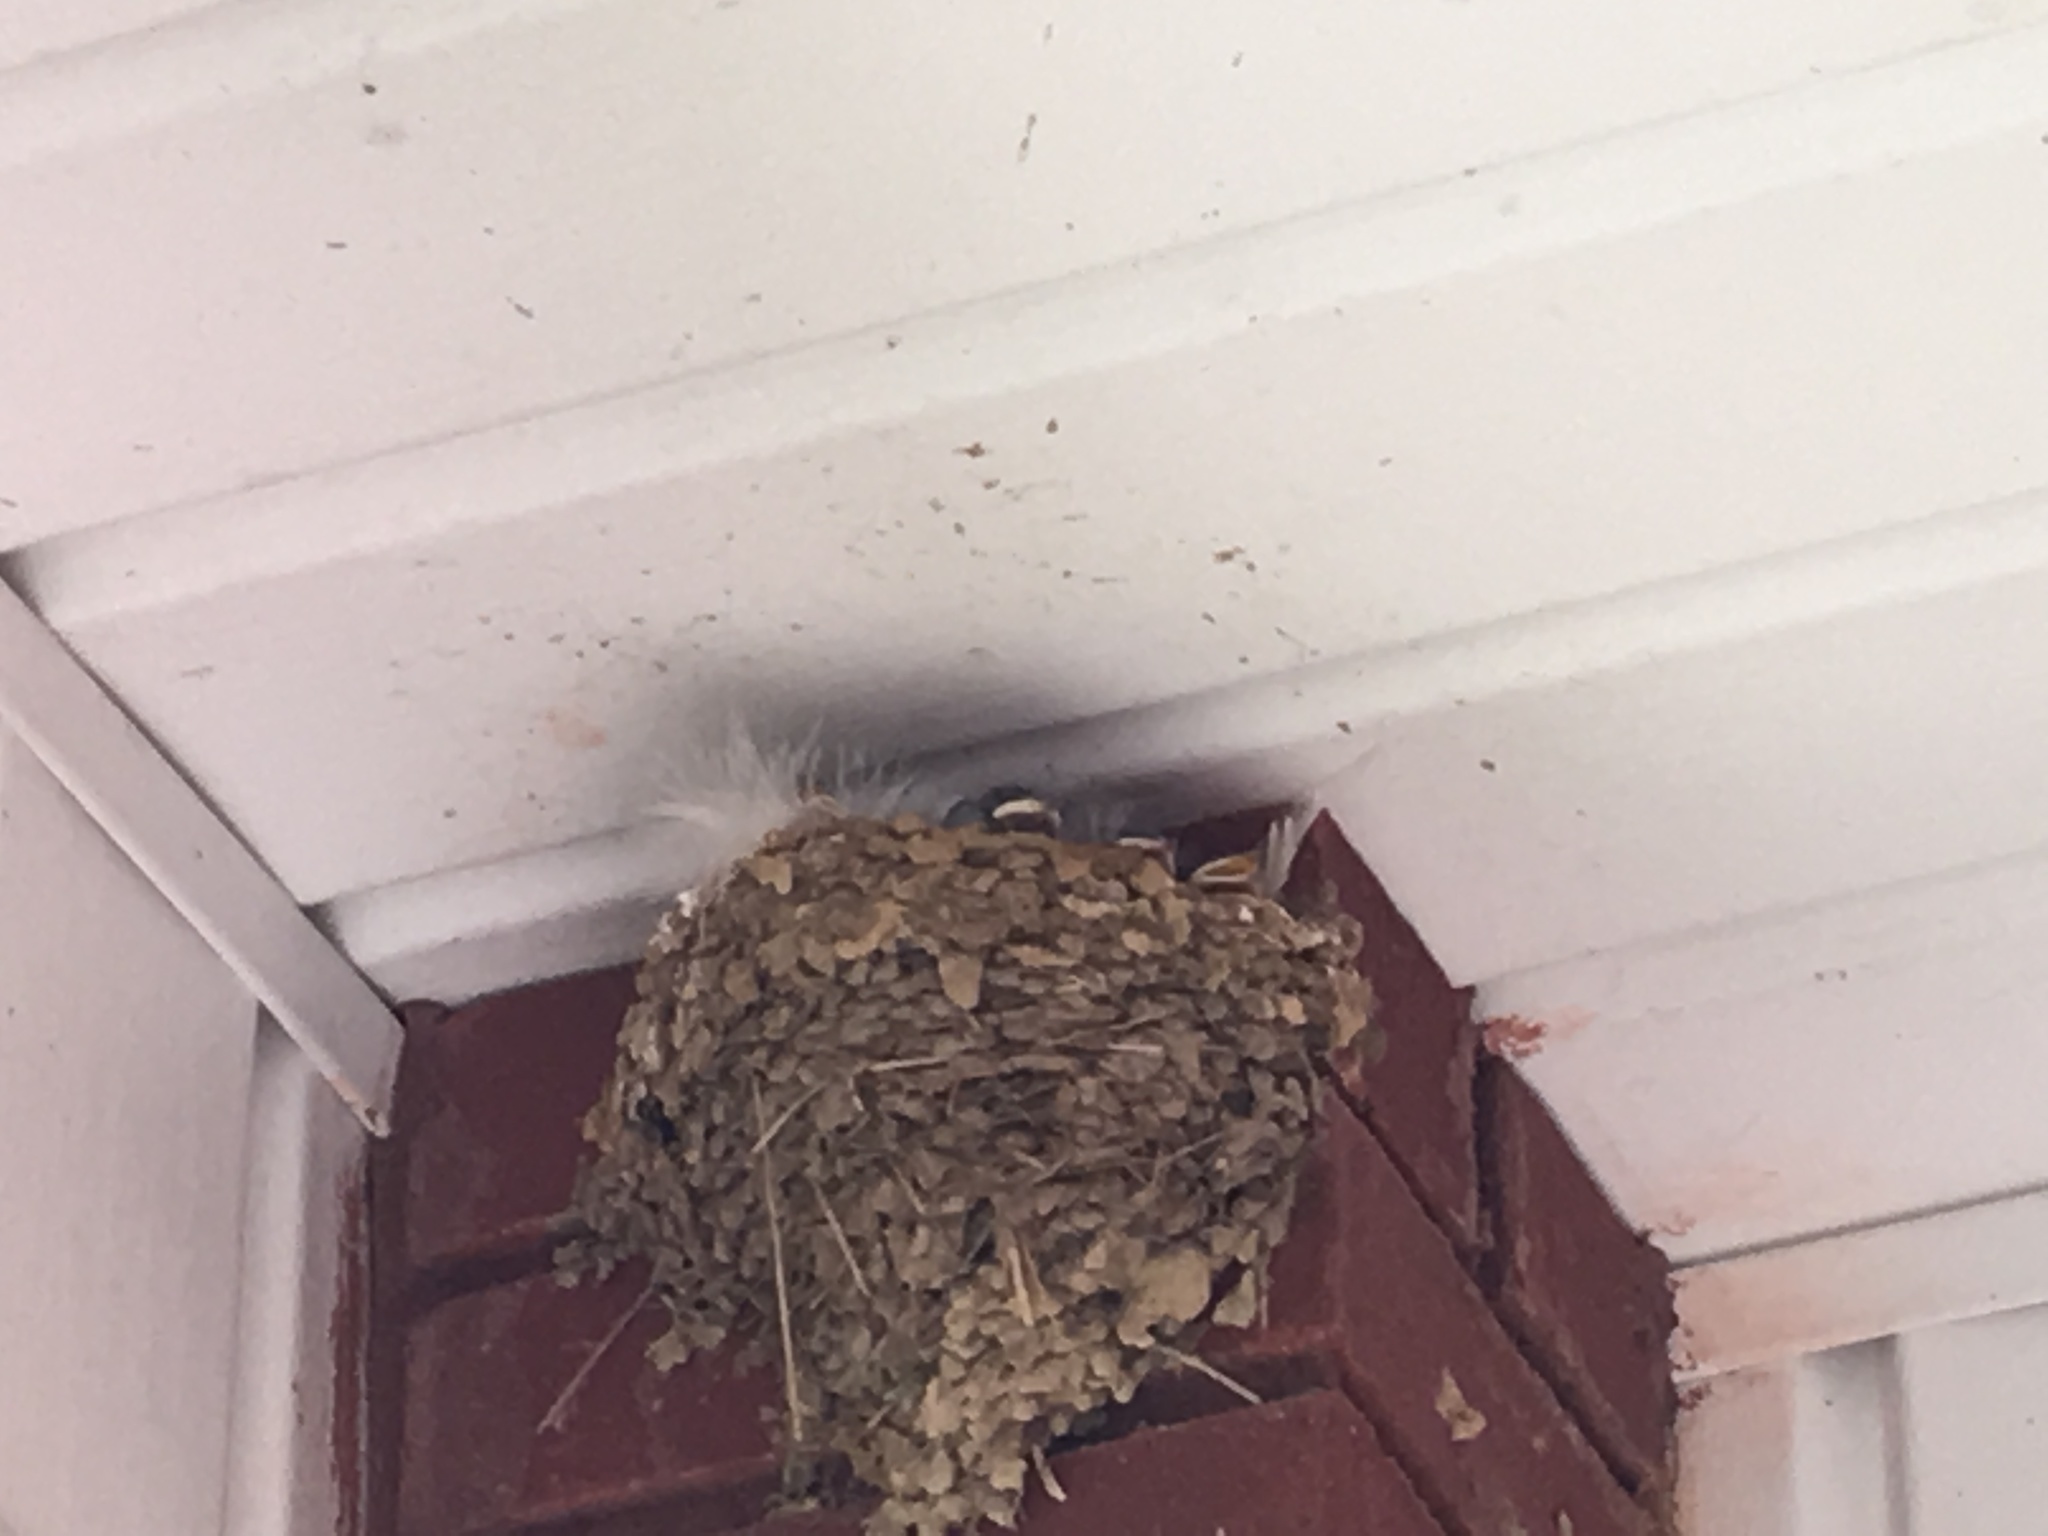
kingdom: Animalia
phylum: Chordata
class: Aves
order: Passeriformes
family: Hirundinidae
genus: Hirundo
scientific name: Hirundo rustica
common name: Barn swallow
